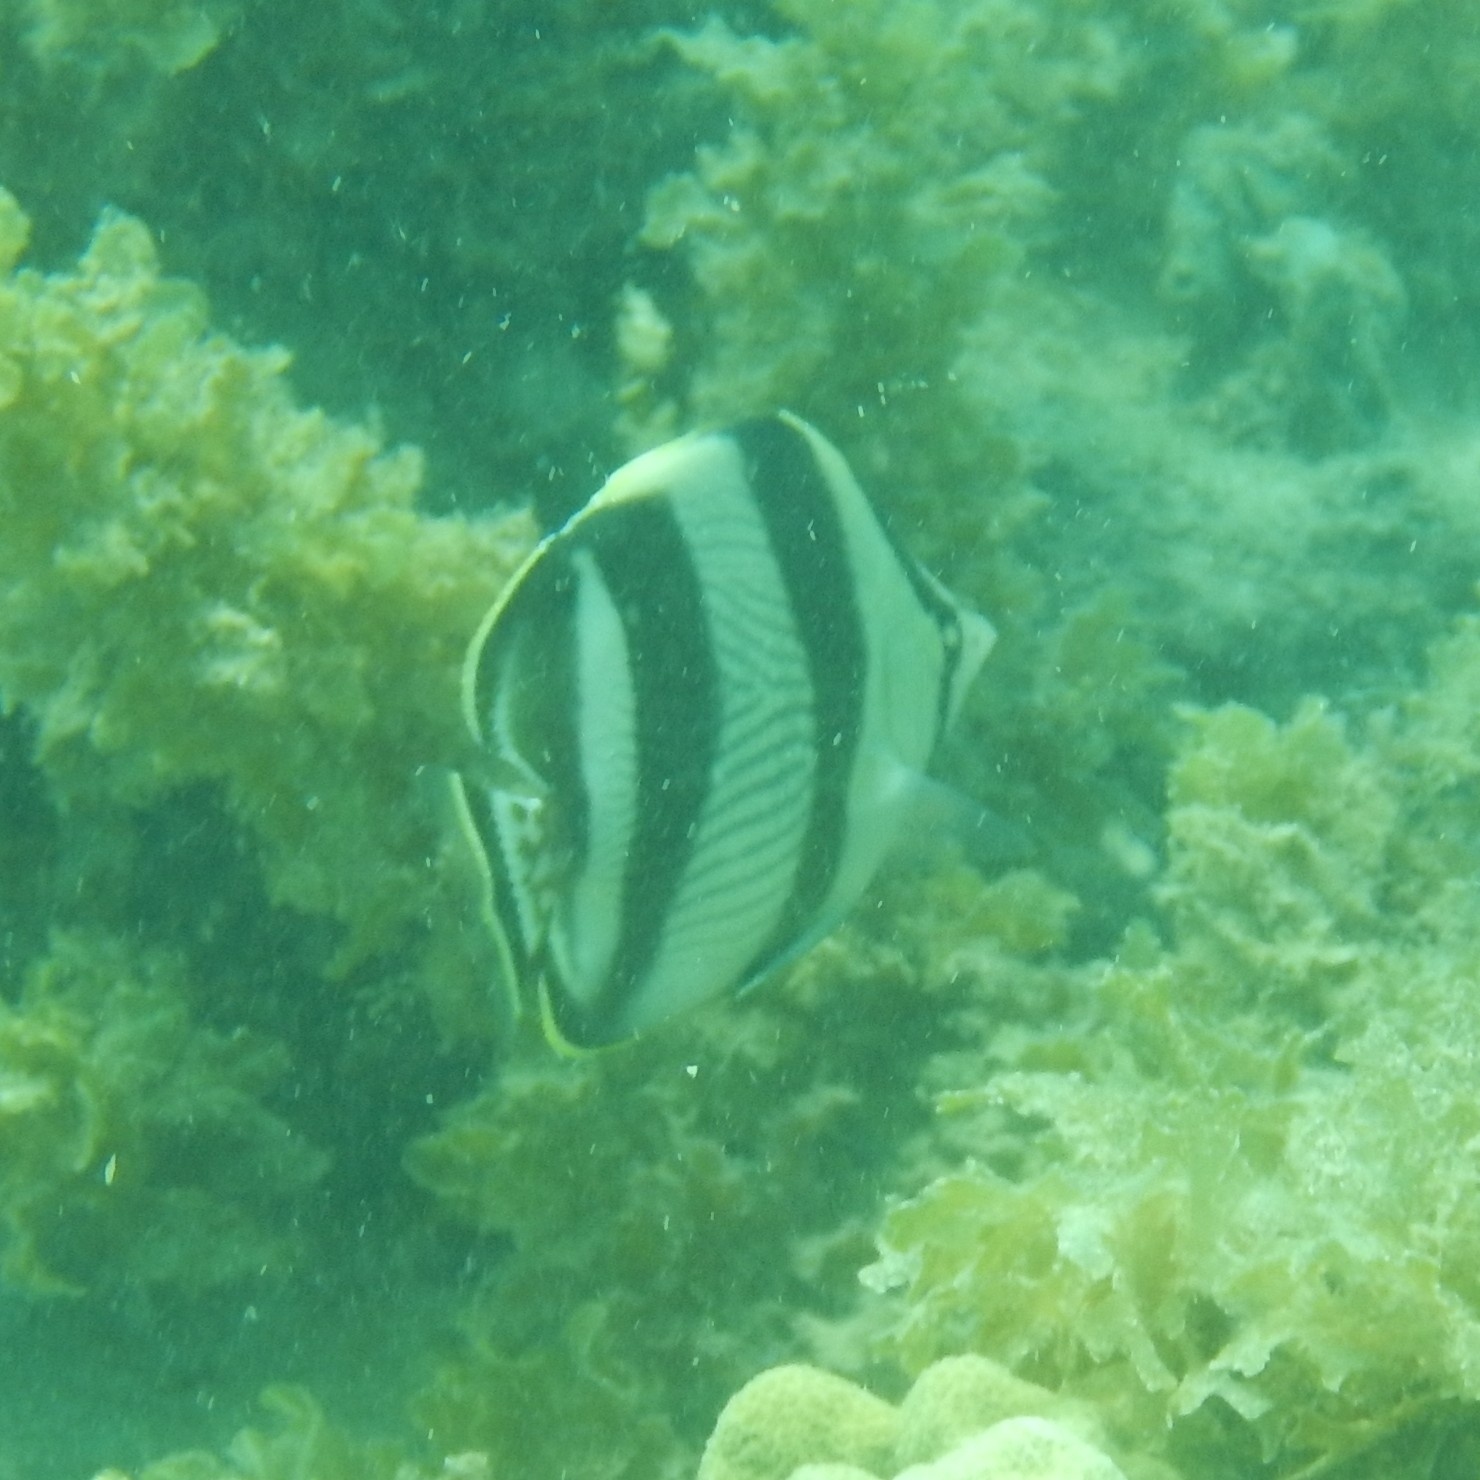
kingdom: Animalia
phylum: Chordata
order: Perciformes
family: Chaetodontidae
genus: Chaetodon
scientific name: Chaetodon striatus
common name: Banded butterflyfish
